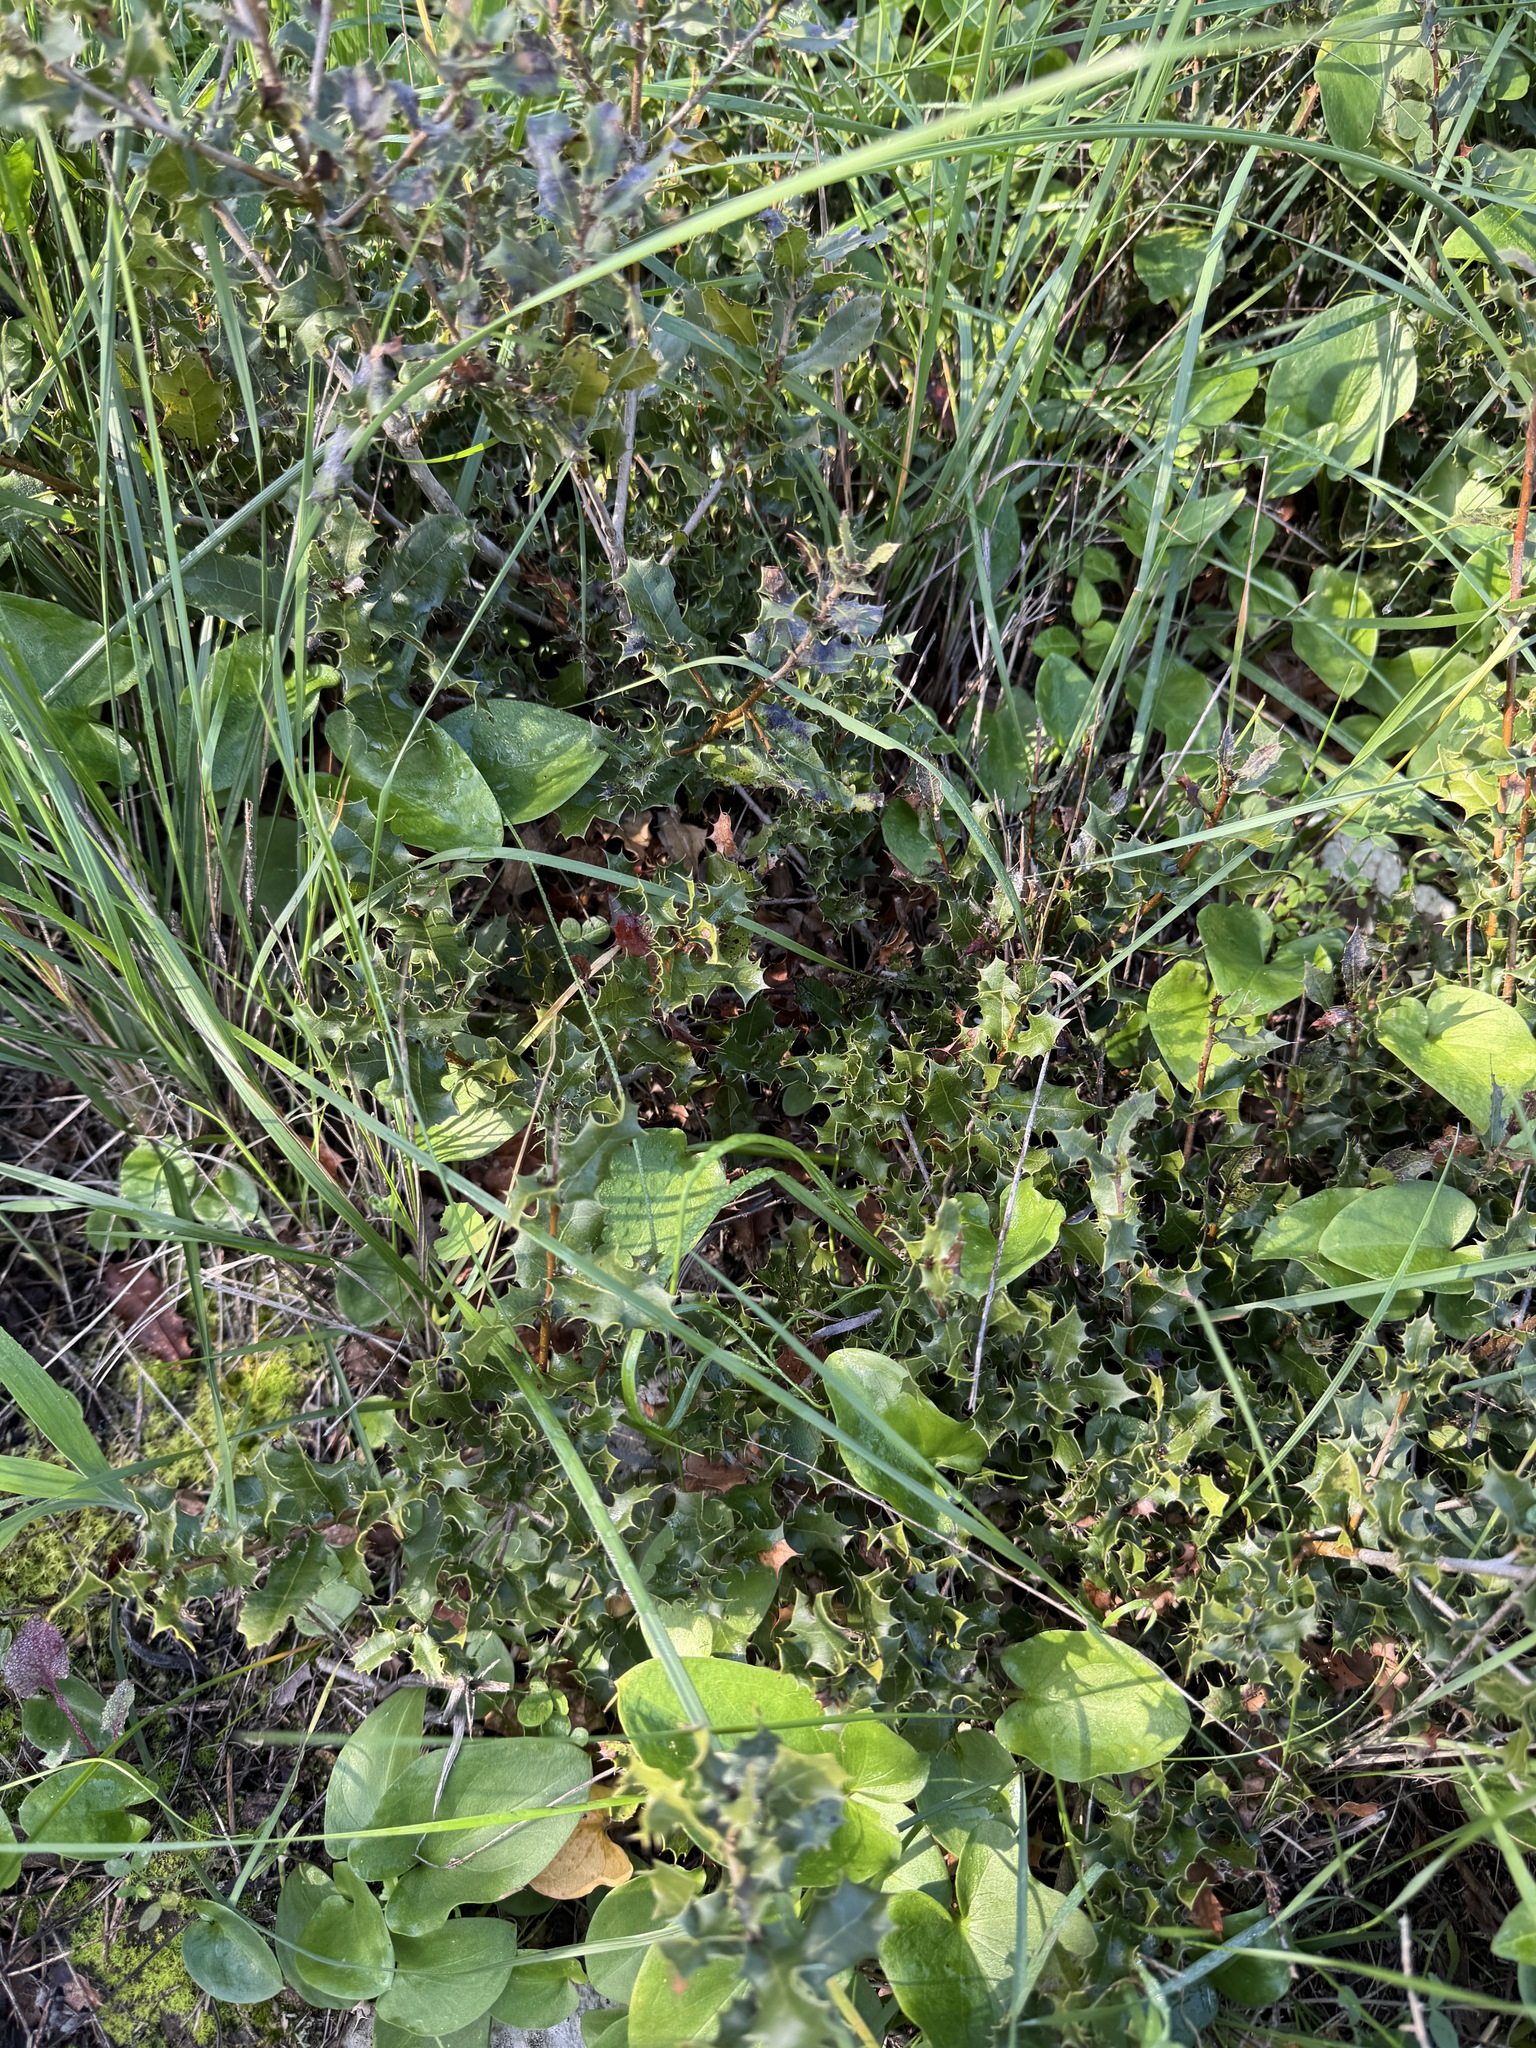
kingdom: Plantae
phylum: Tracheophyta
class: Magnoliopsida
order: Fagales
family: Fagaceae
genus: Quercus
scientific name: Quercus coccifera
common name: Kermes oak
